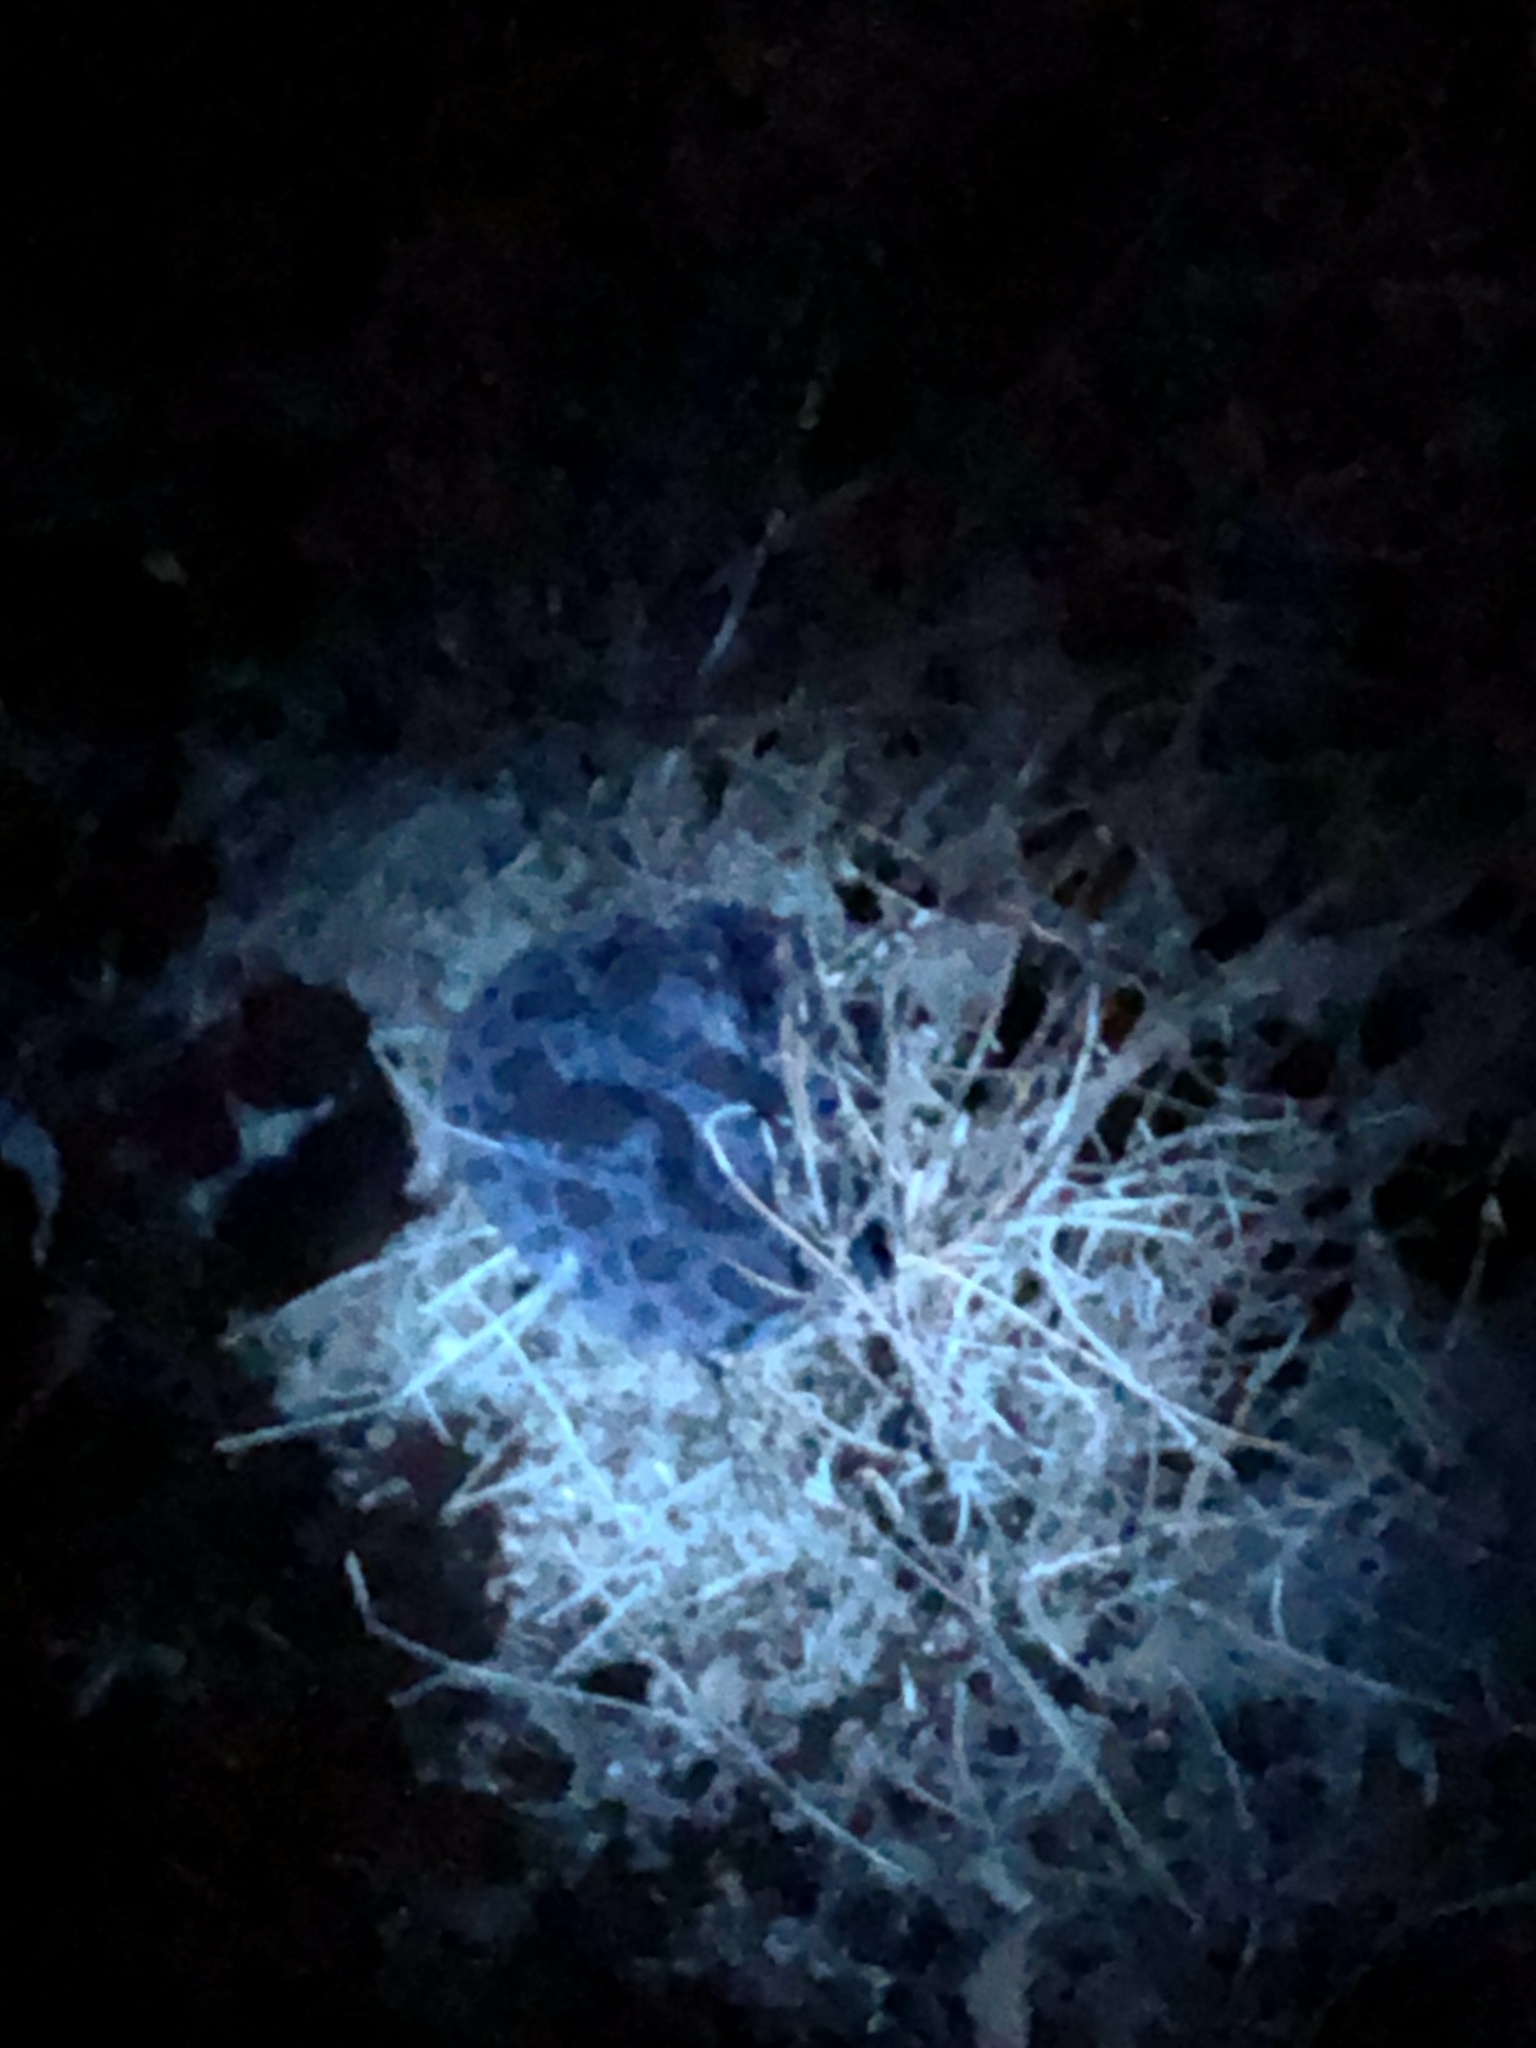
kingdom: Animalia
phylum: Chordata
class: Squamata
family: Viperidae
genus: Crotalus
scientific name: Crotalus oreganus
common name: Abyssus
